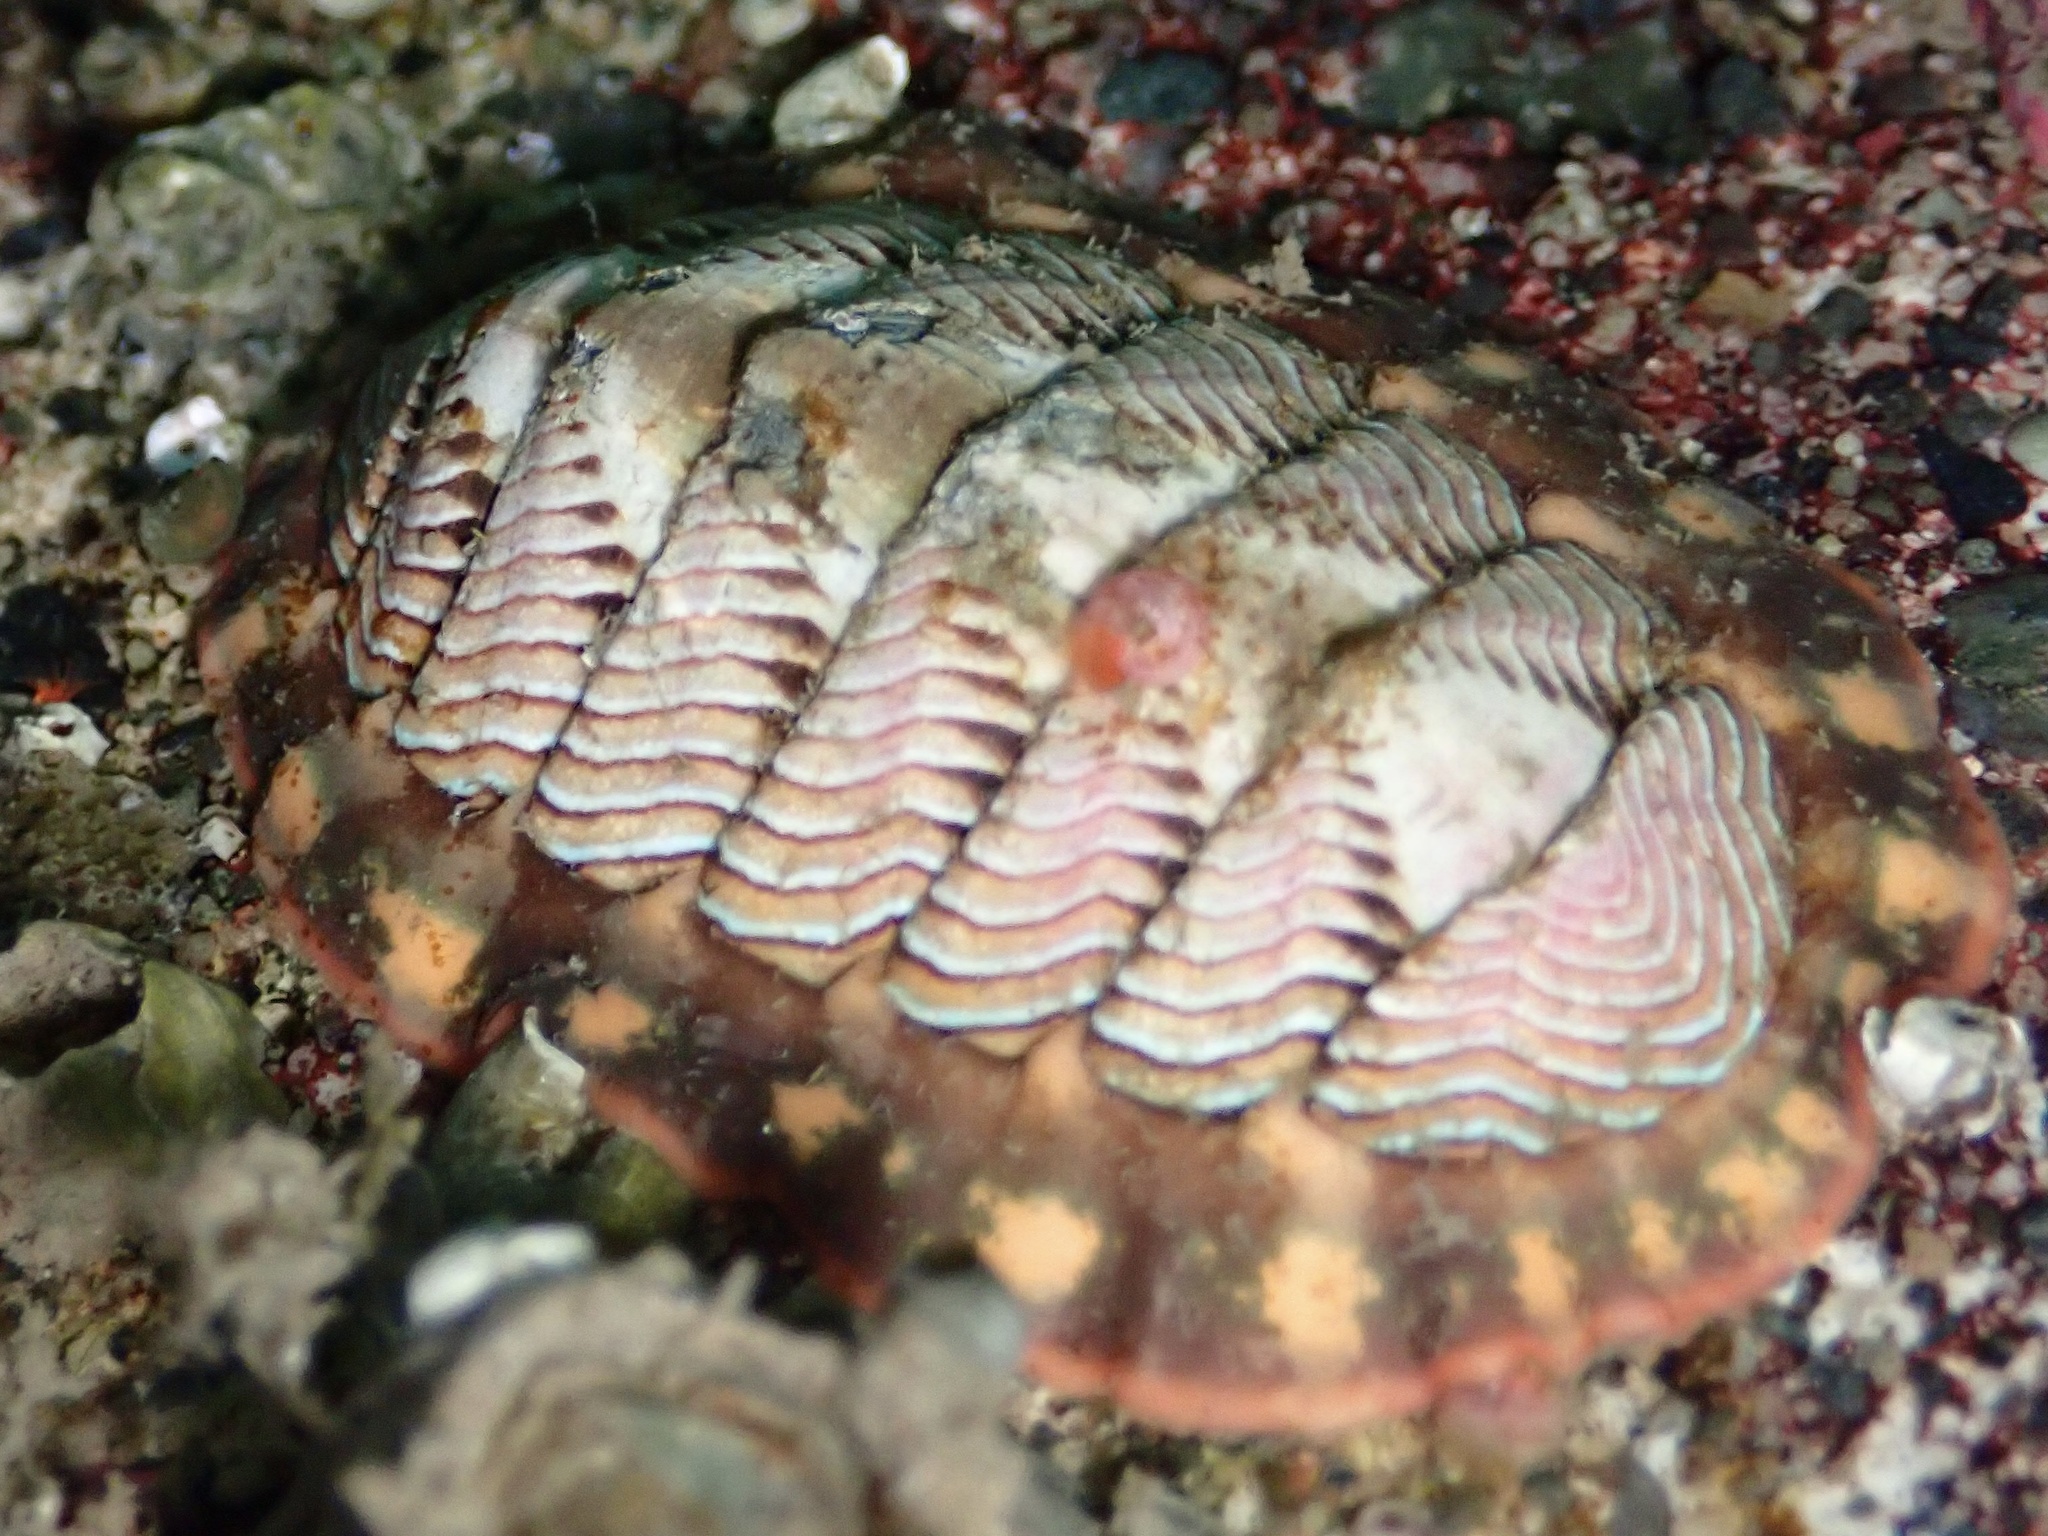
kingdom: Animalia
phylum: Mollusca
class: Polyplacophora
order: Chitonida
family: Tonicellidae
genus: Tonicella
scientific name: Tonicella lineata
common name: Lined chiton
